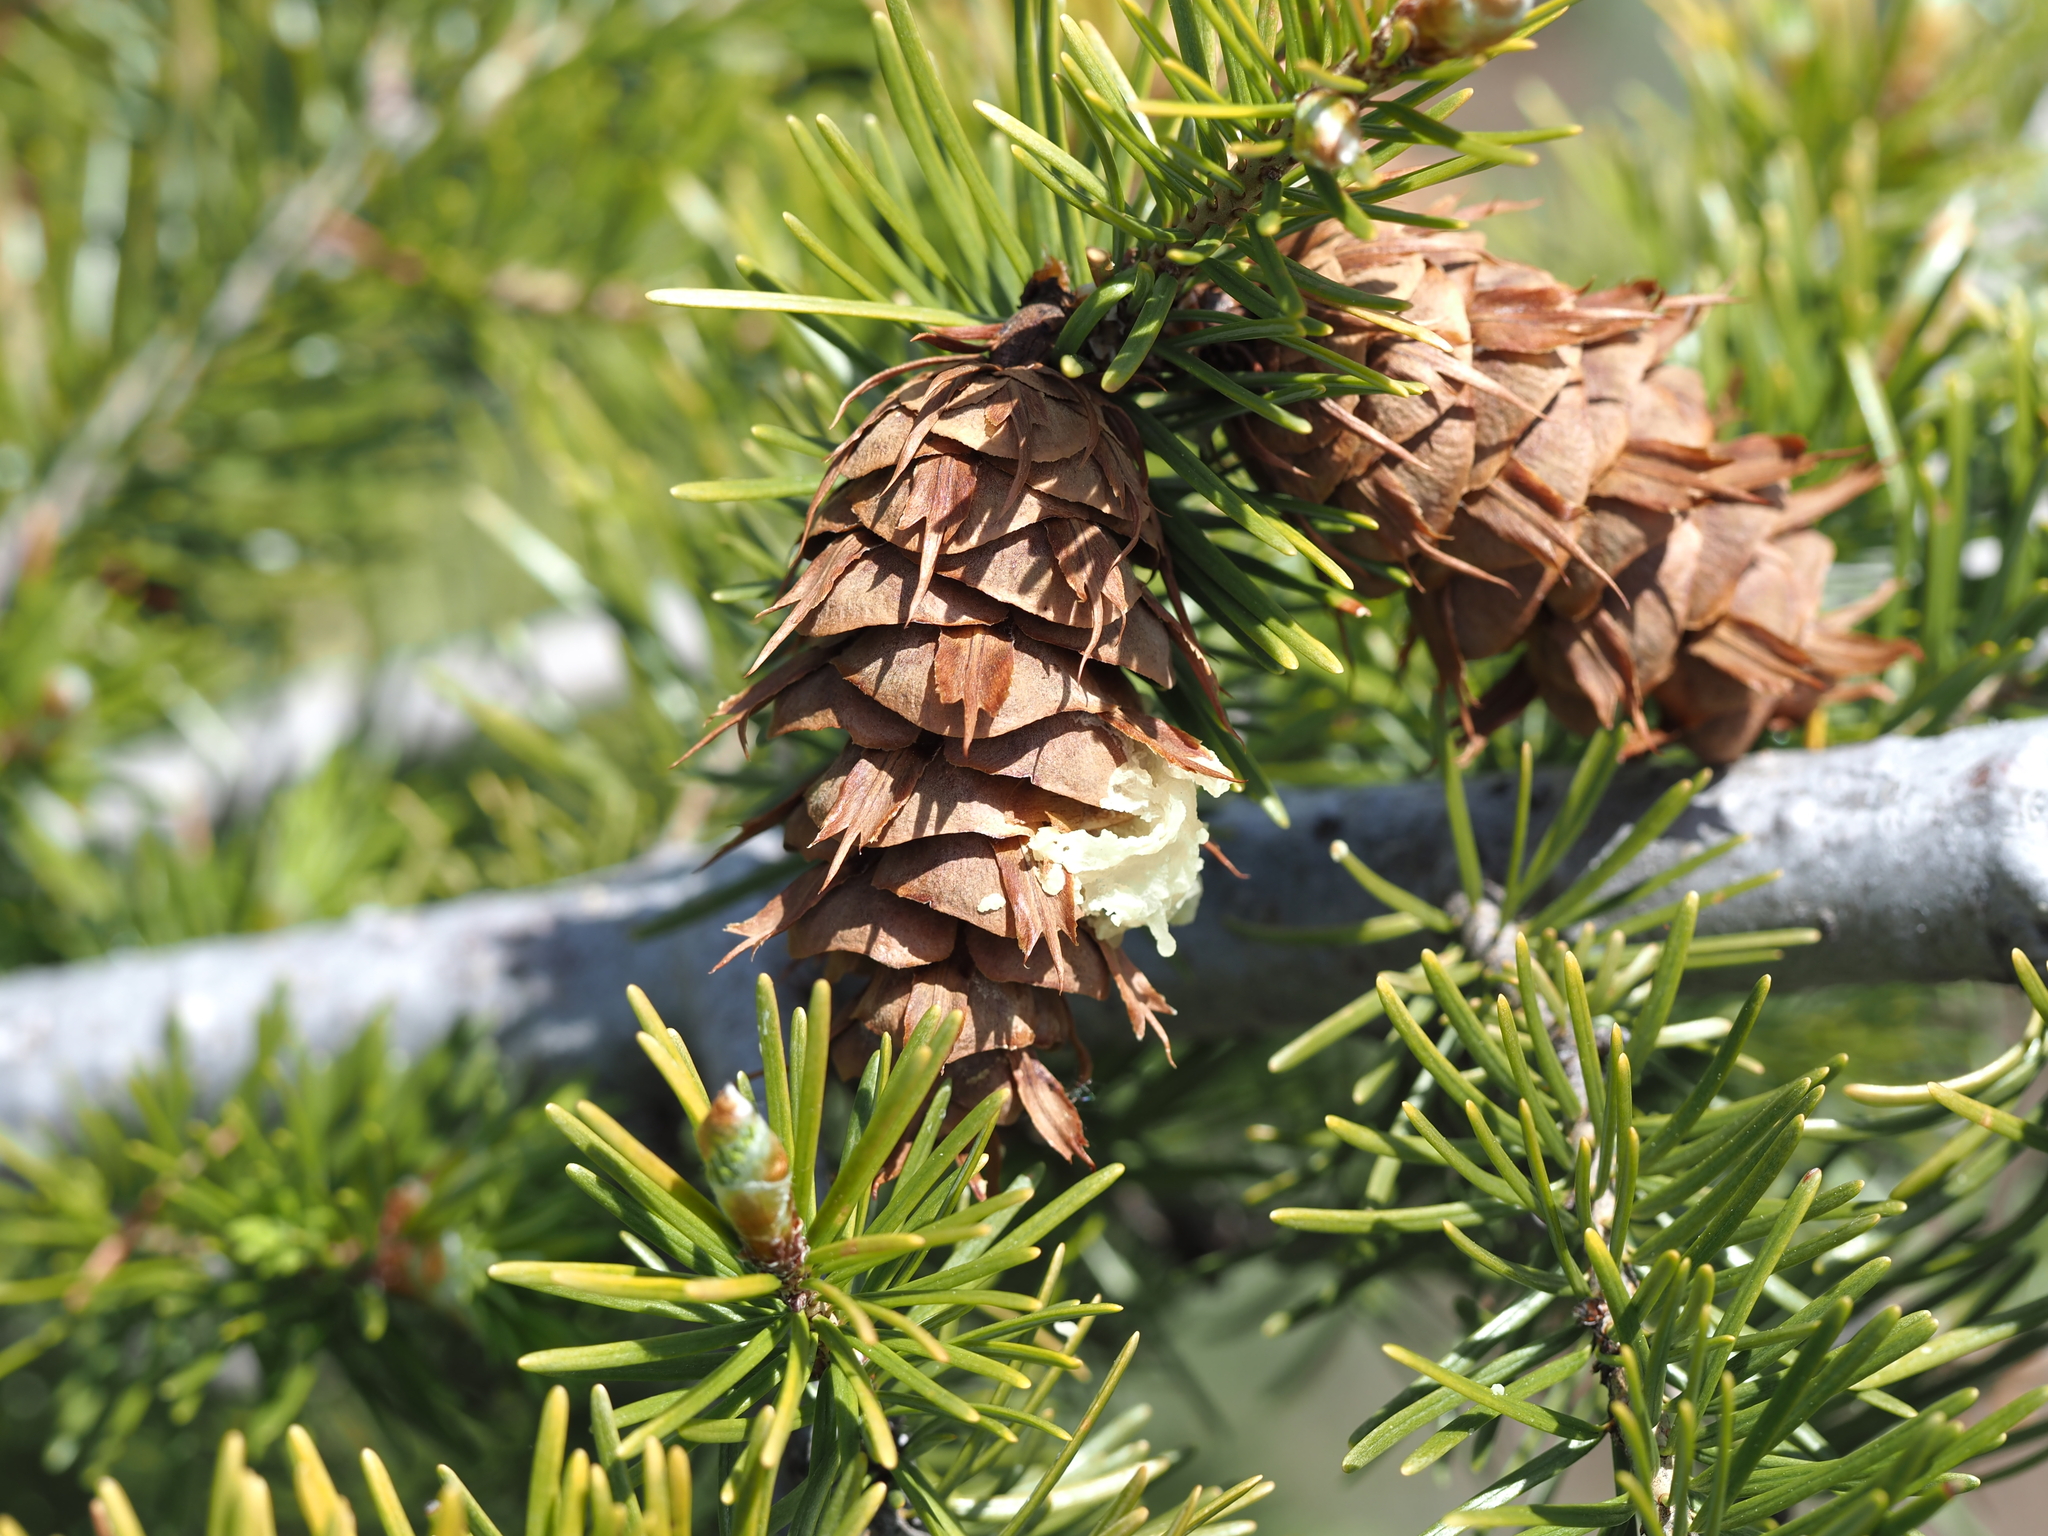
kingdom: Plantae
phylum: Tracheophyta
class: Pinopsida
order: Pinales
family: Pinaceae
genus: Pseudotsuga
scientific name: Pseudotsuga menziesii
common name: Douglas fir
